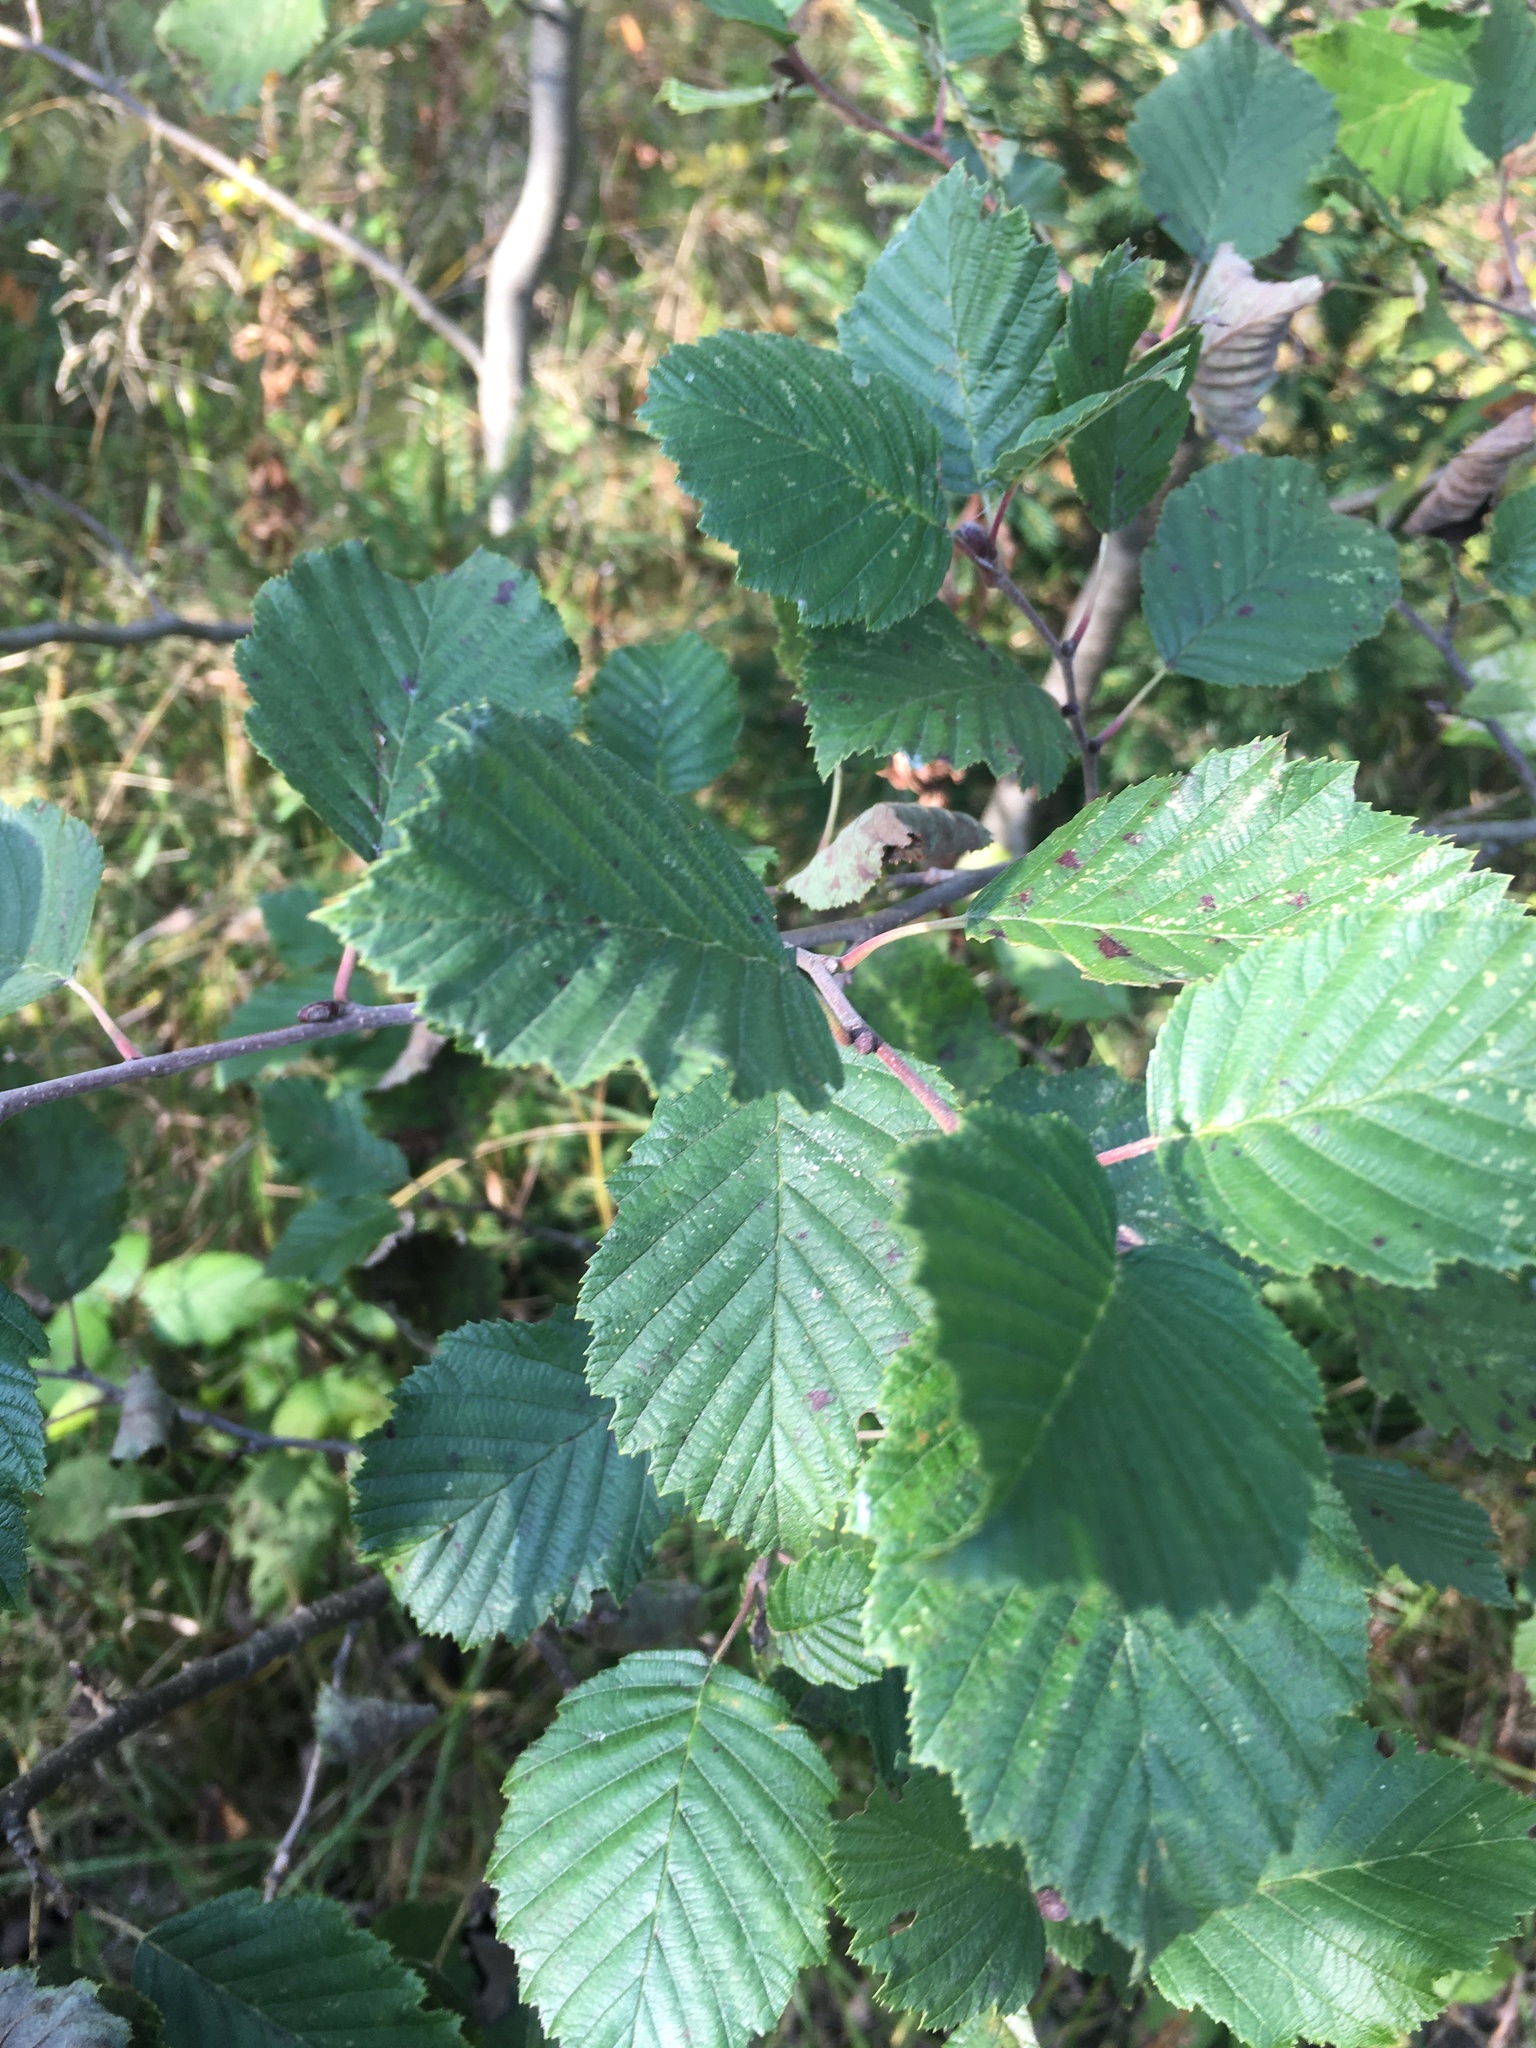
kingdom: Plantae
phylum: Tracheophyta
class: Magnoliopsida
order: Fagales
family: Betulaceae
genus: Alnus
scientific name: Alnus incana
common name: Grey alder
